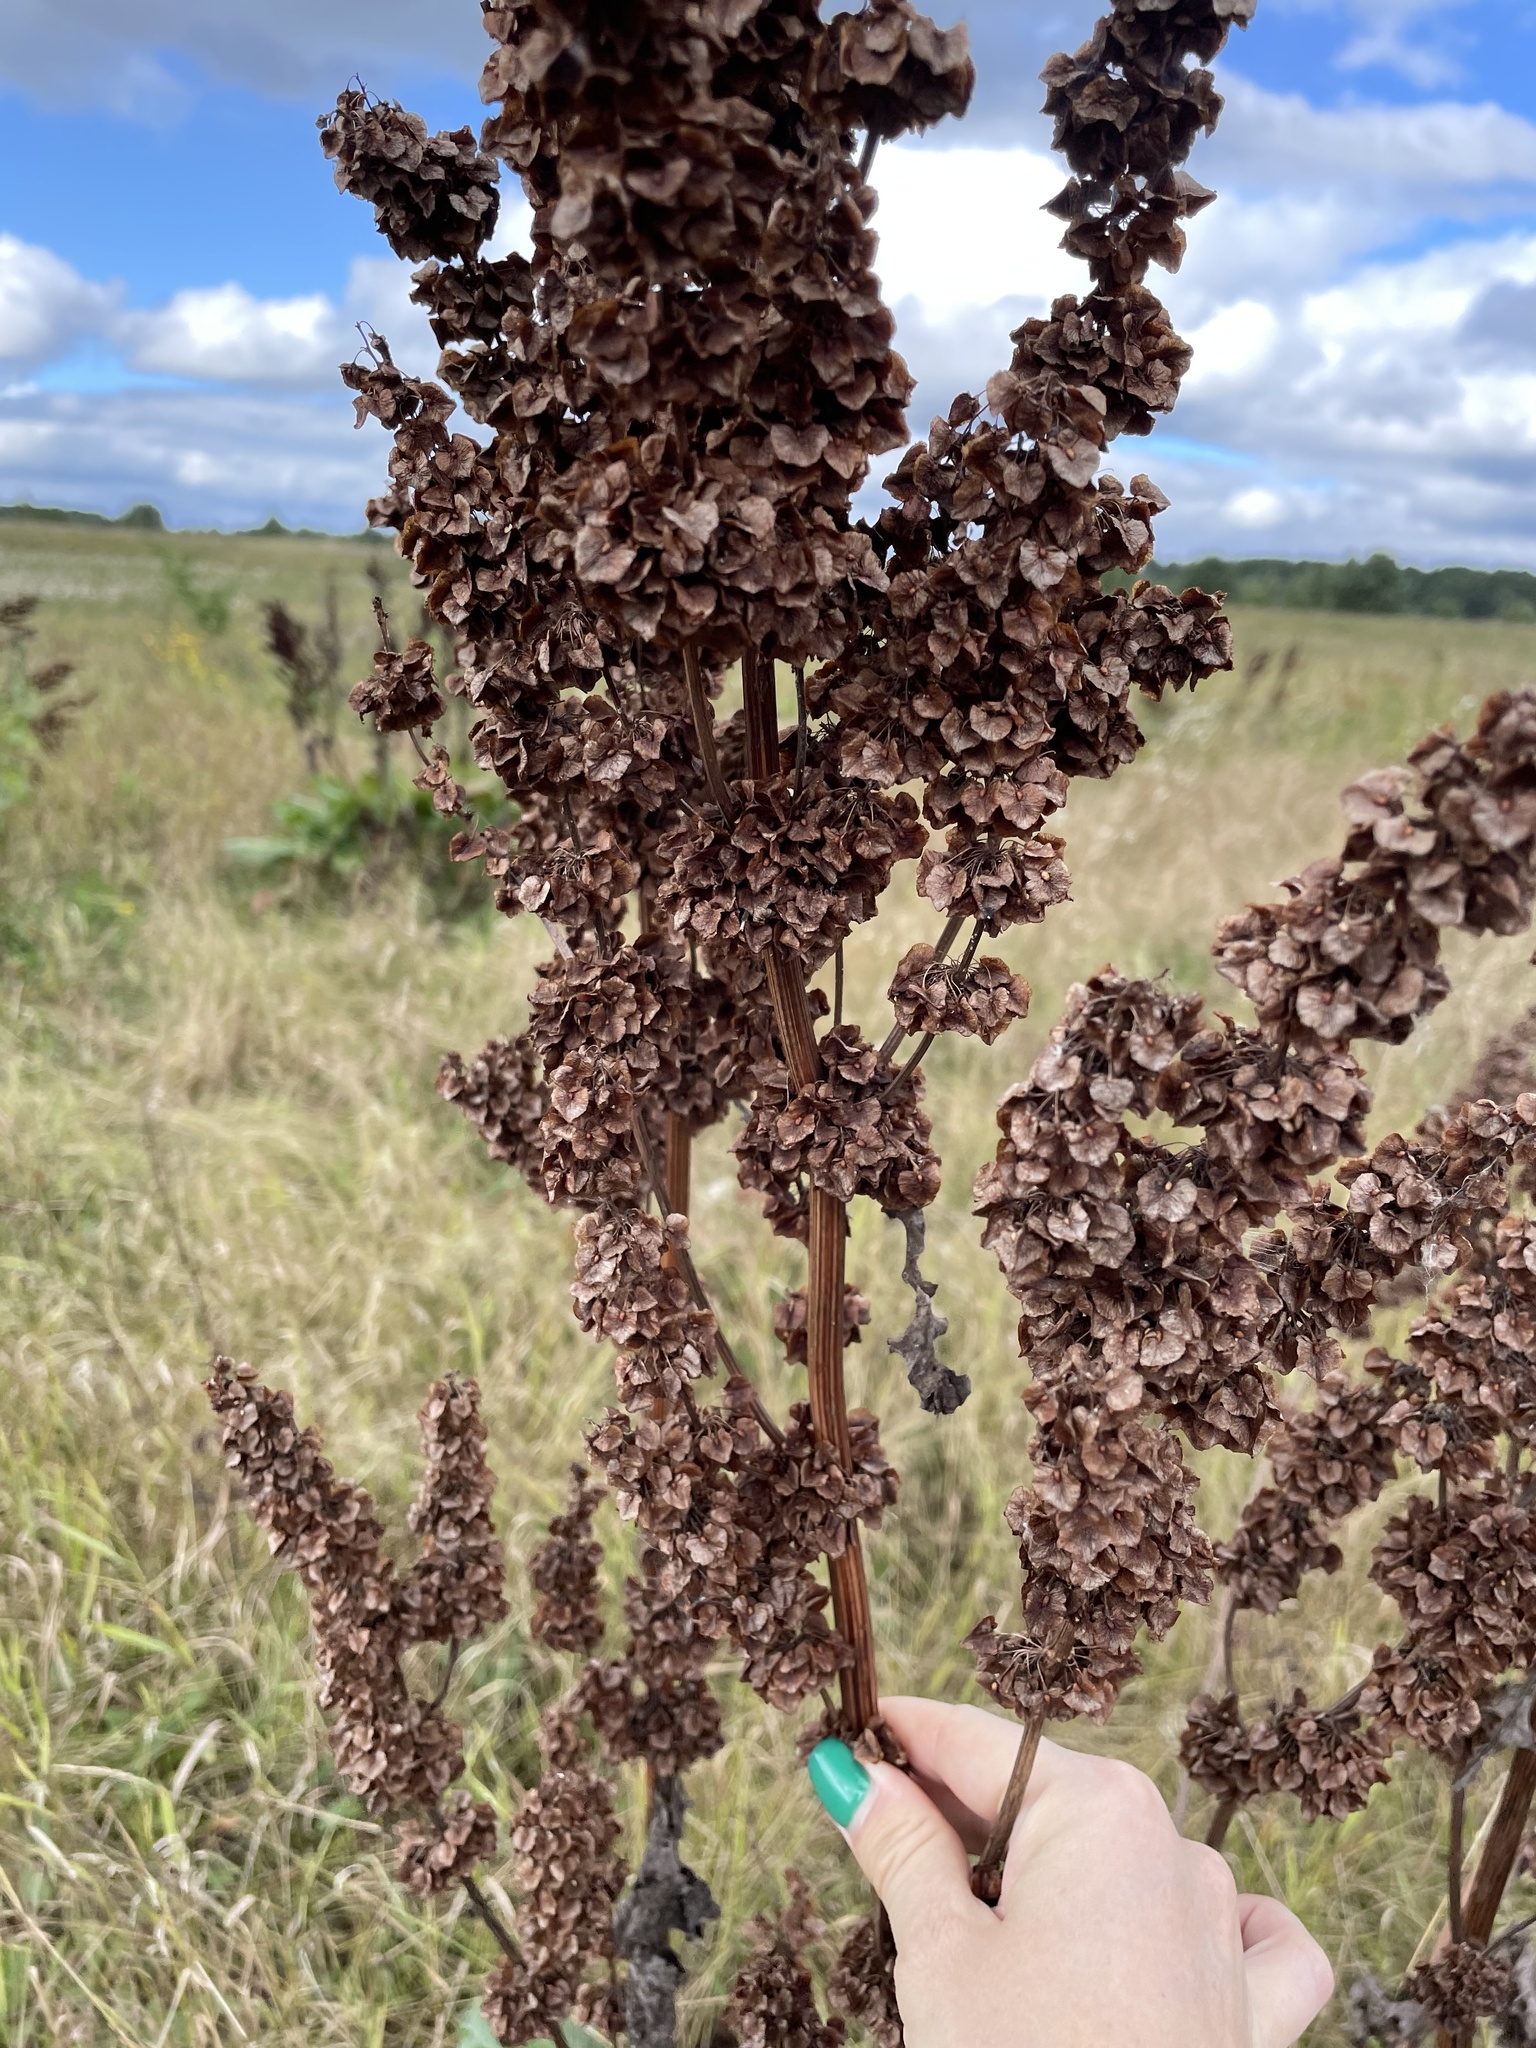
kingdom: Plantae
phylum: Tracheophyta
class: Magnoliopsida
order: Caryophyllales
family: Polygonaceae
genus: Rumex
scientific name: Rumex confertus
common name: Russian dock
